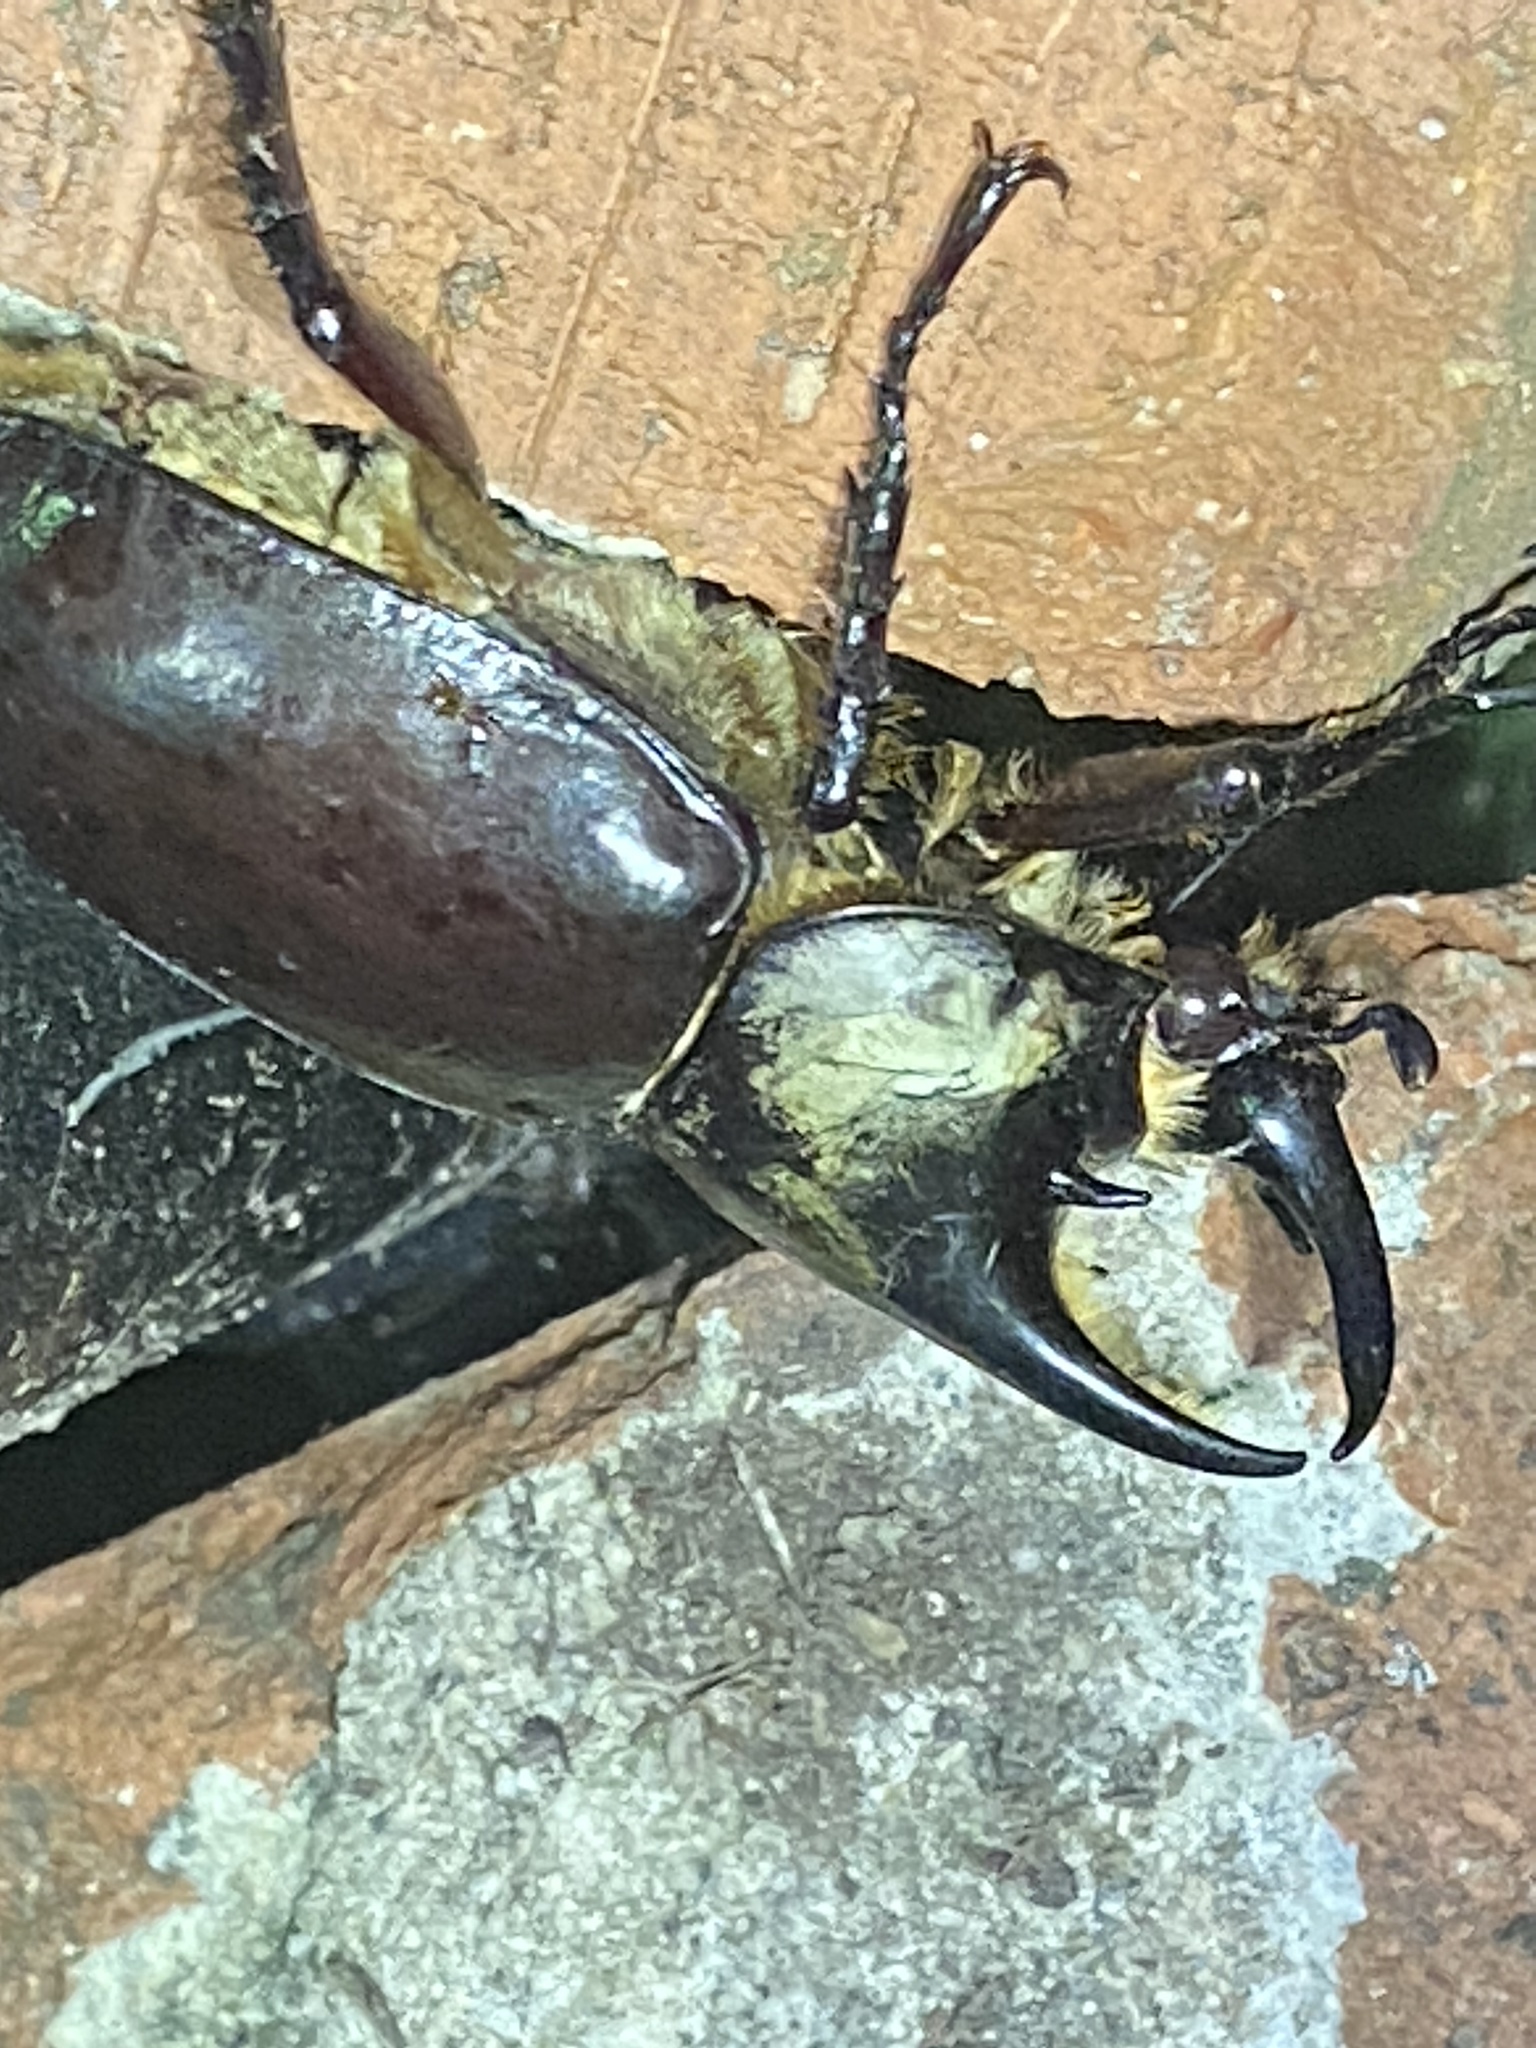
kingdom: Animalia
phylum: Arthropoda
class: Insecta
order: Coleoptera
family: Scarabaeidae
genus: Dynastes
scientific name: Dynastes tityus
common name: Eastern hercules beetle
